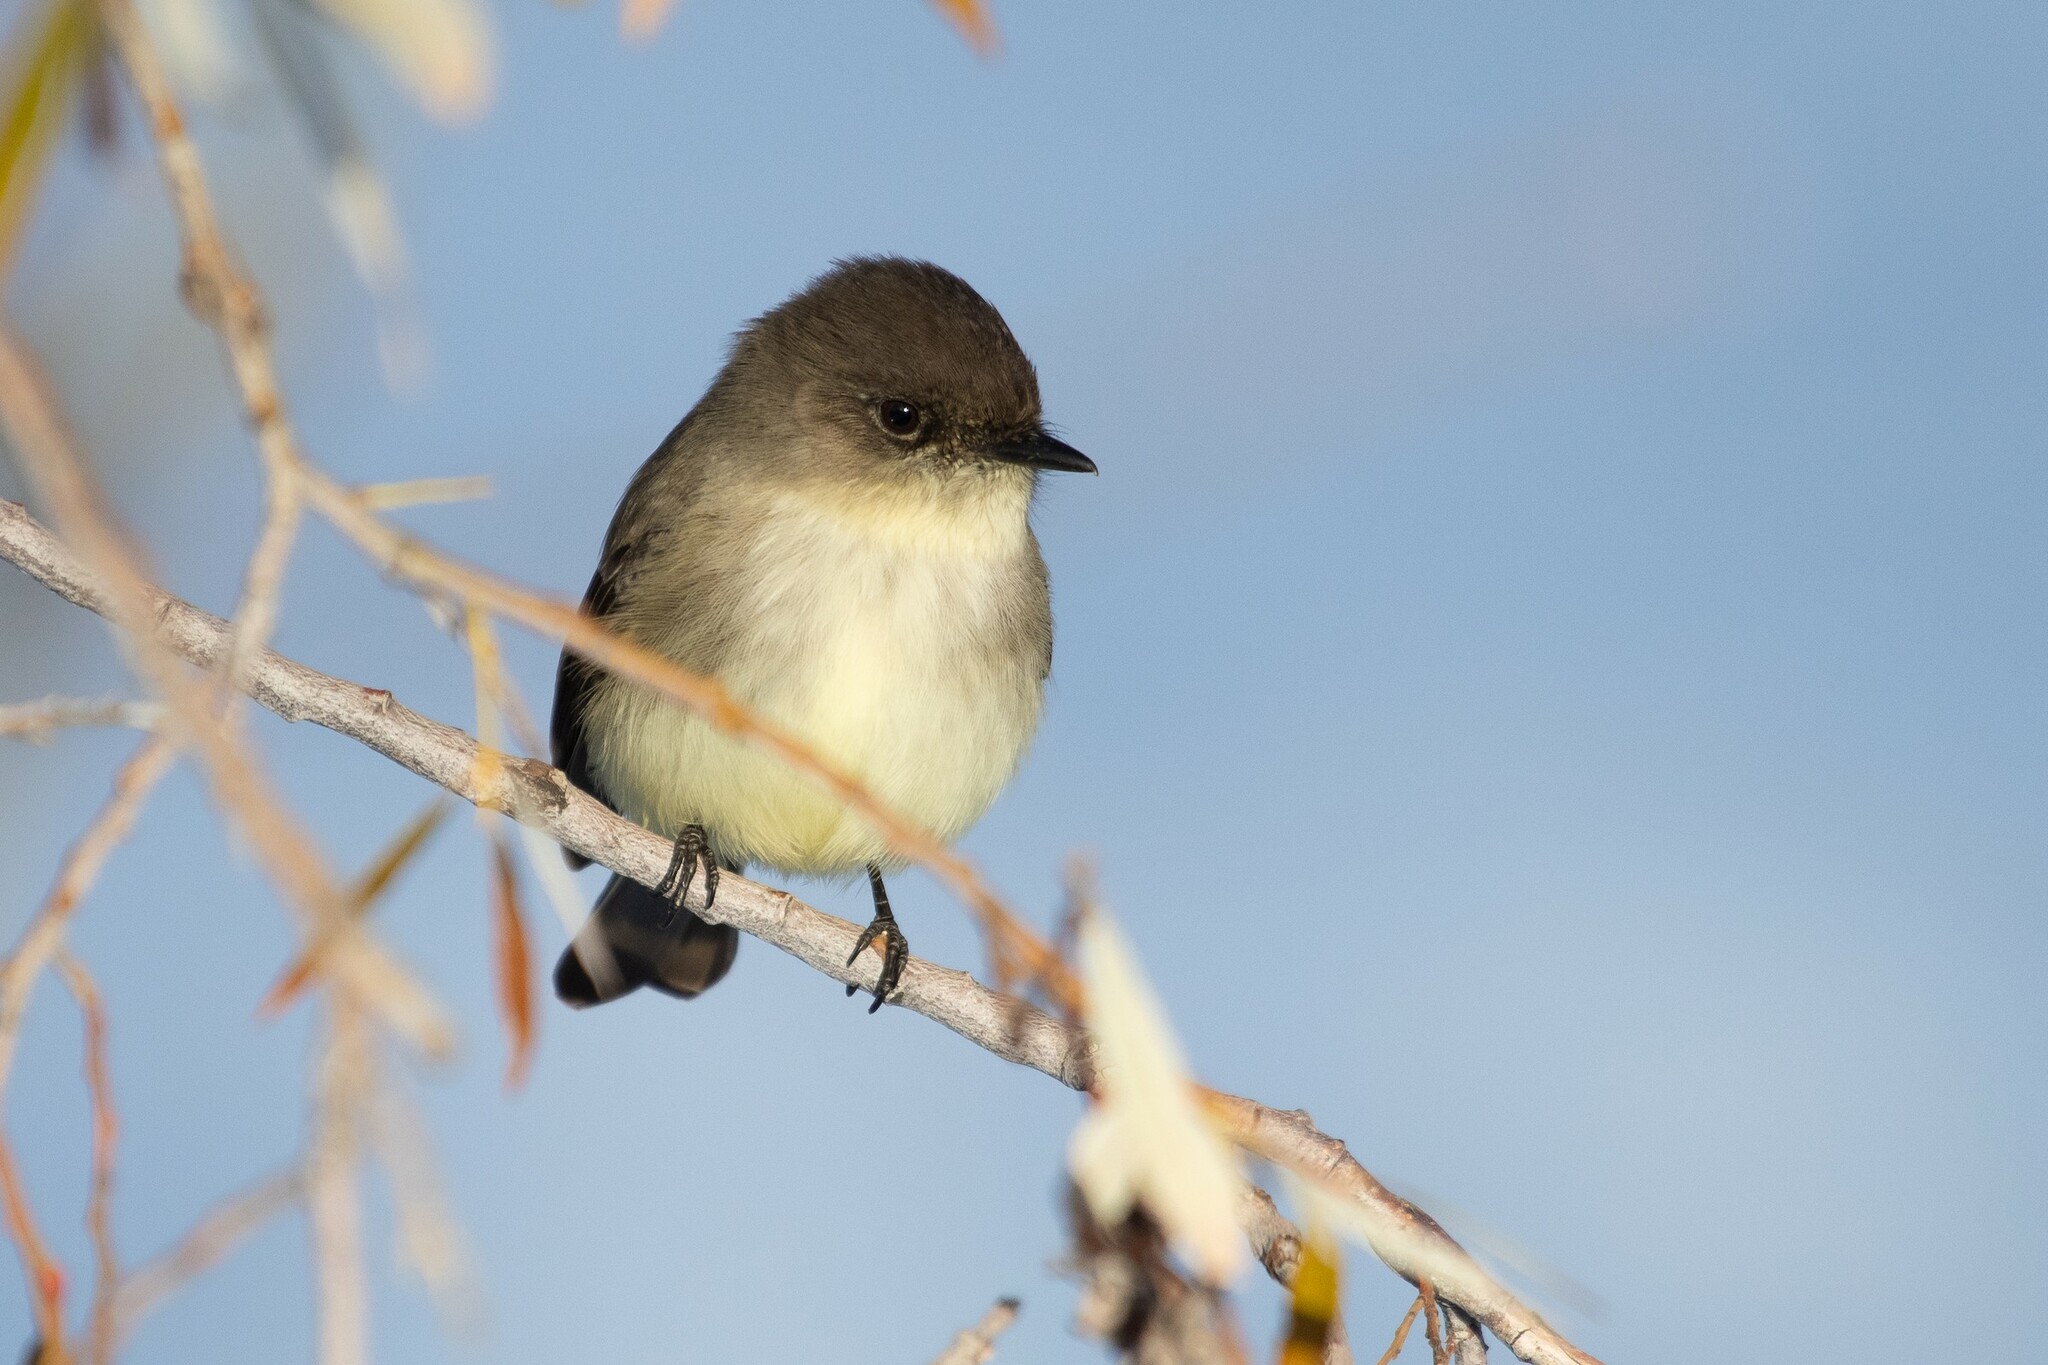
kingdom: Animalia
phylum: Chordata
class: Aves
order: Passeriformes
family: Tyrannidae
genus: Sayornis
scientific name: Sayornis phoebe
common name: Eastern phoebe
